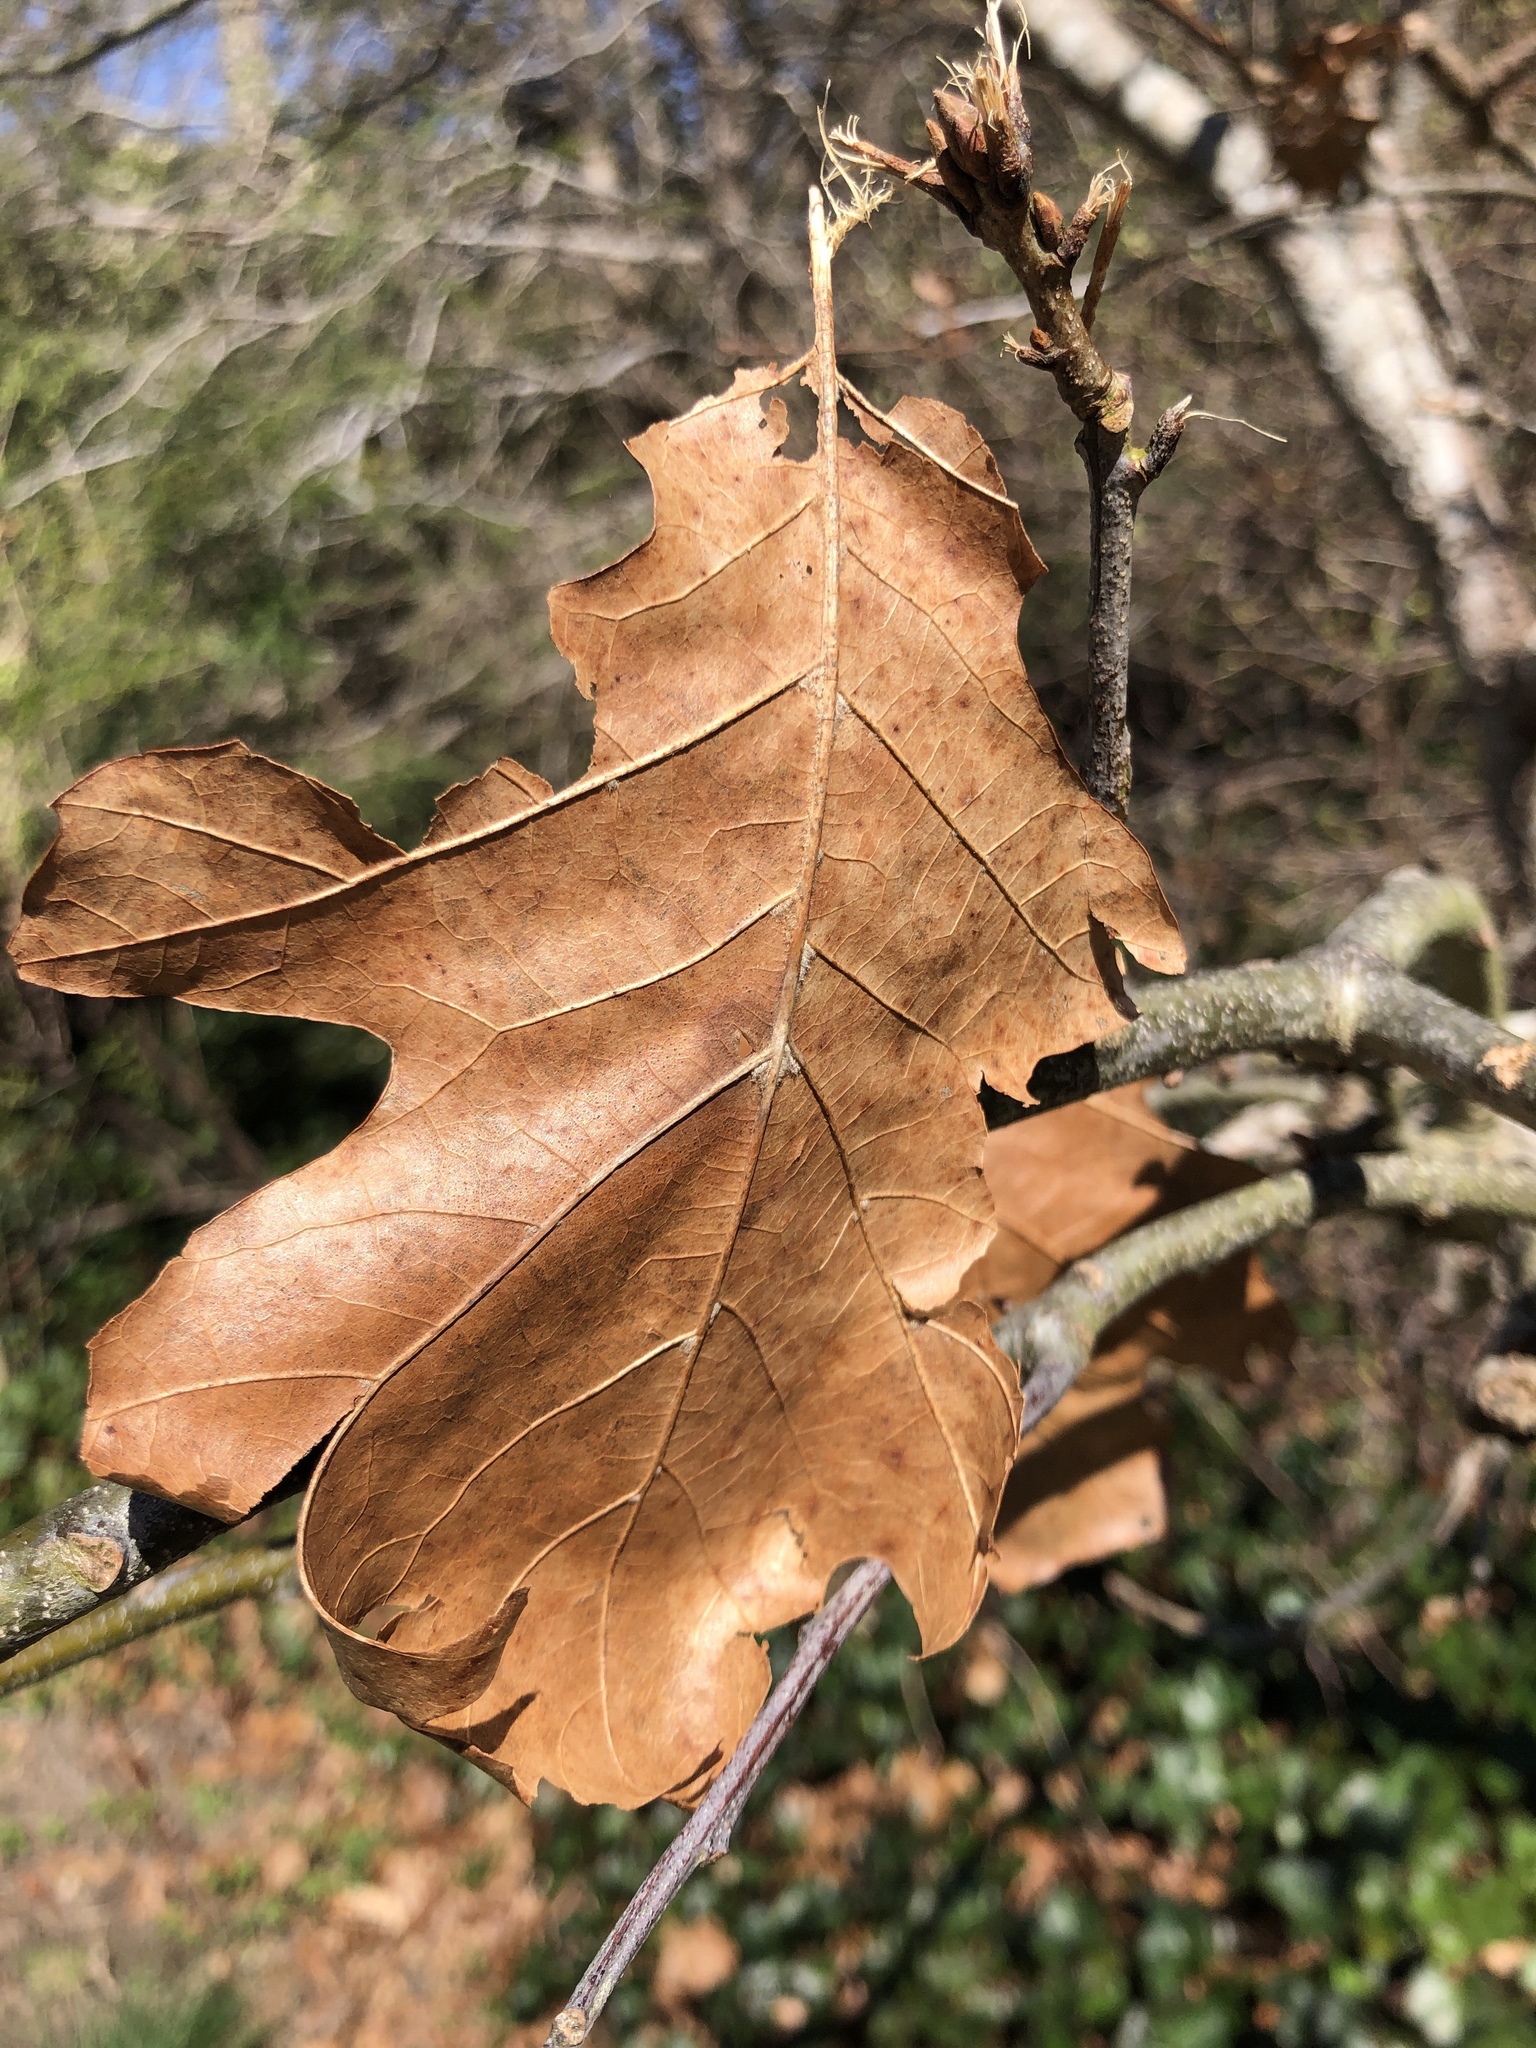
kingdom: Plantae
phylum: Tracheophyta
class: Magnoliopsida
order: Fagales
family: Fagaceae
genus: Quercus
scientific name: Quercus rubra
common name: Red oak
